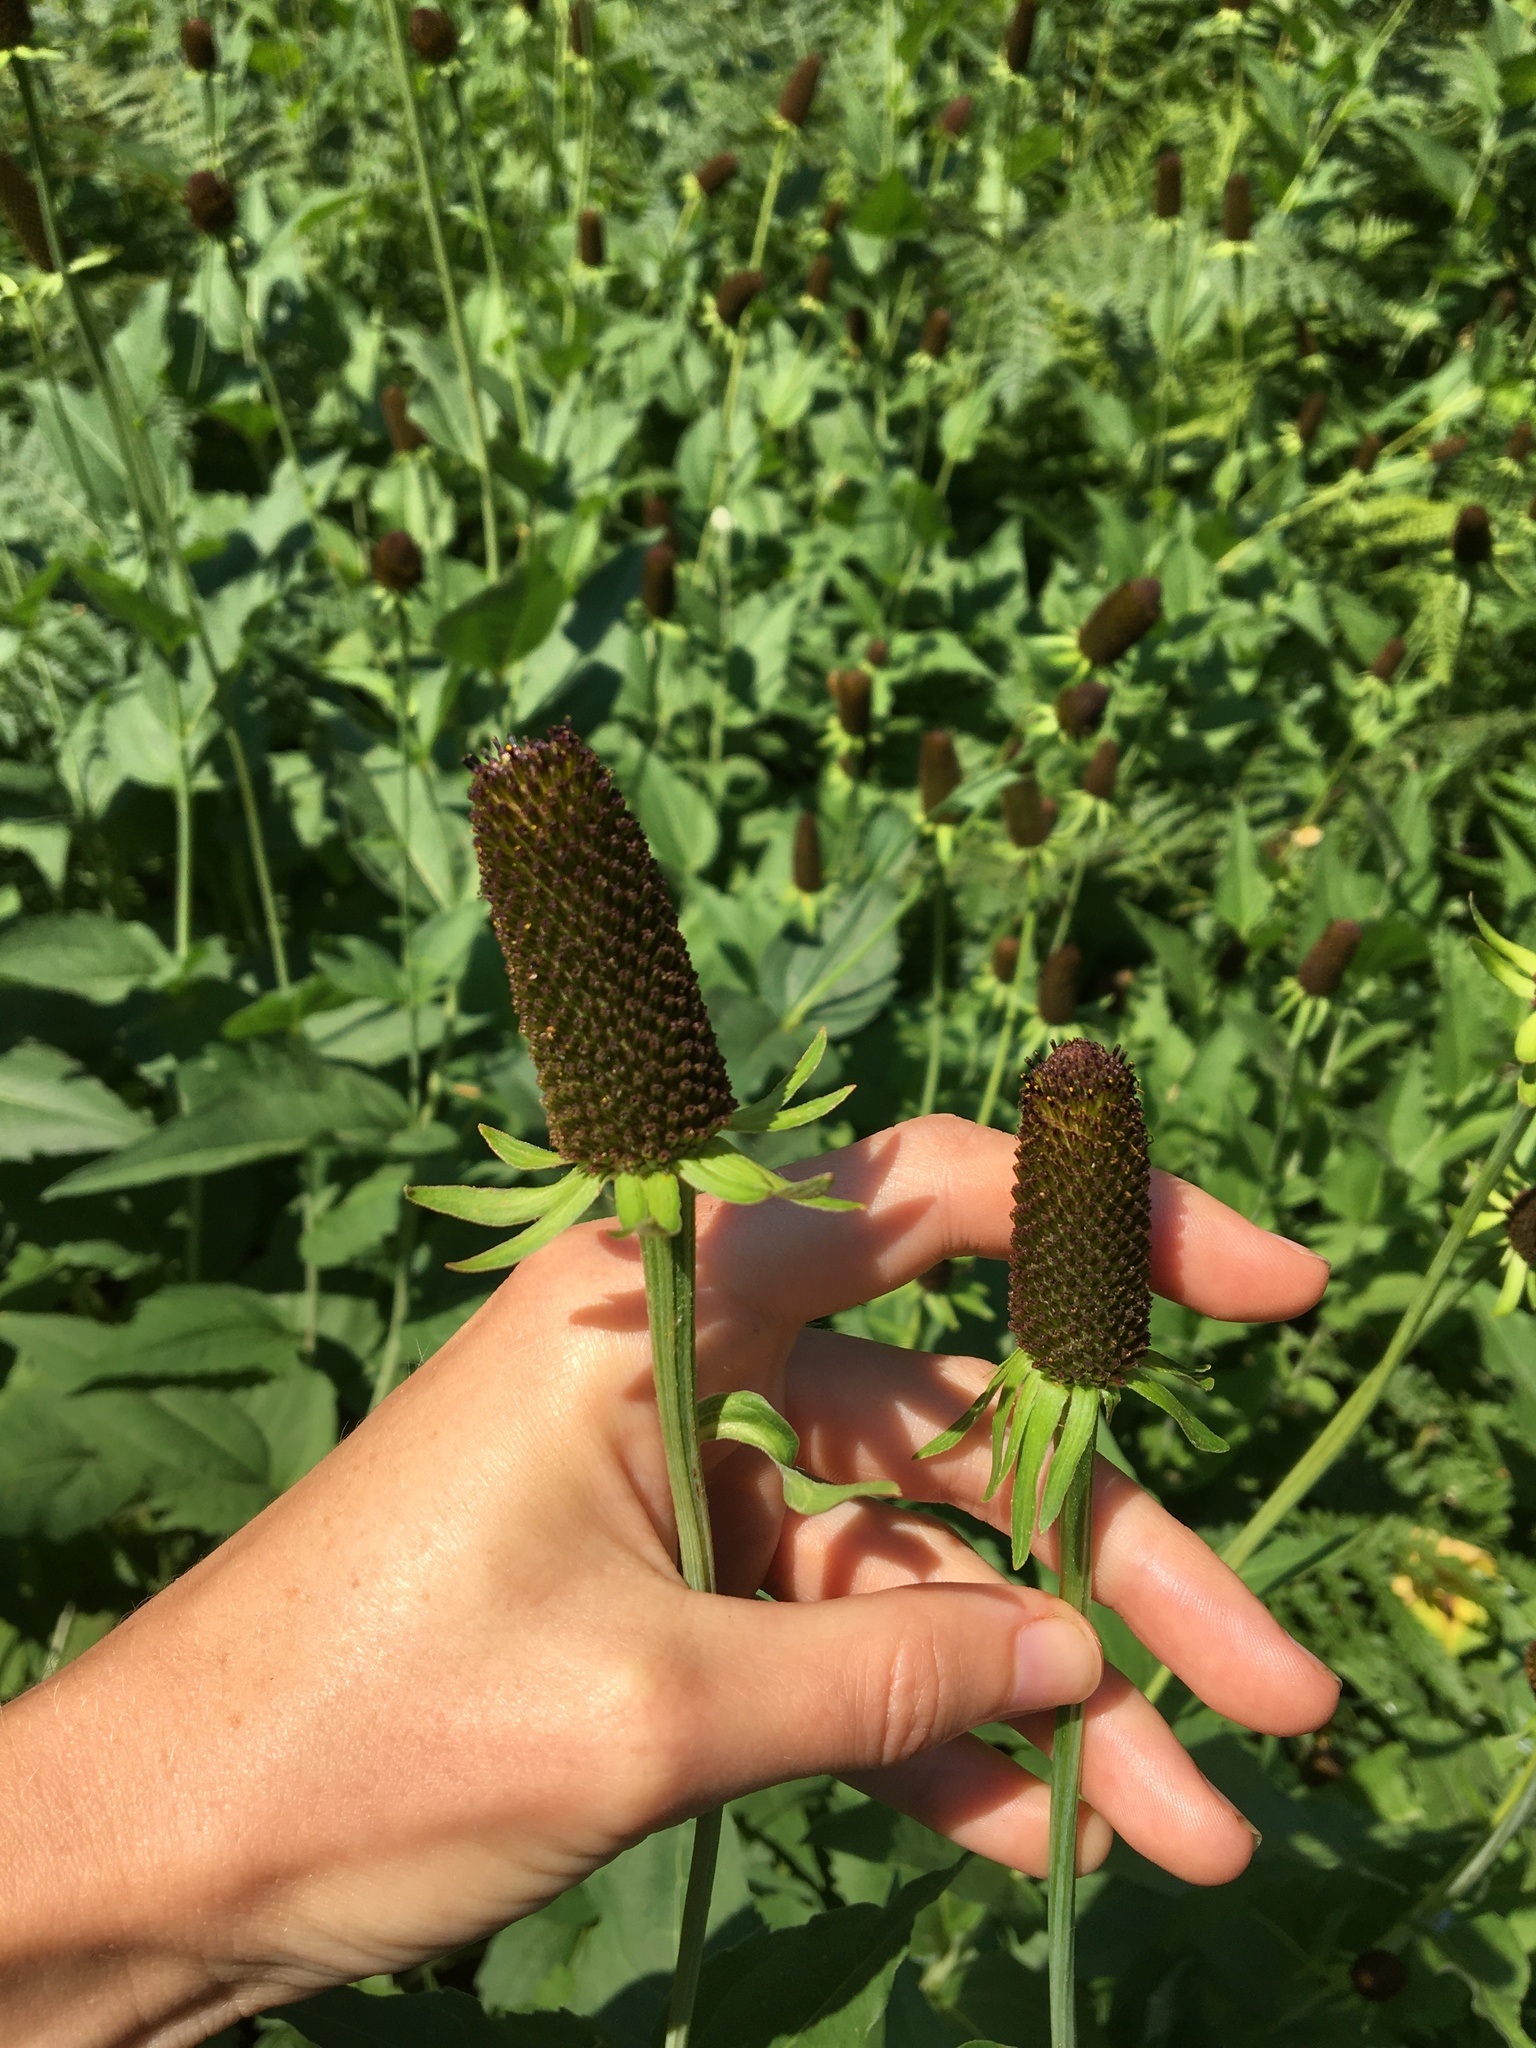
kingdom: Plantae
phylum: Tracheophyta
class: Magnoliopsida
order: Asterales
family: Asteraceae
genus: Rudbeckia
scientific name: Rudbeckia occidentalis
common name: Western coneflower
